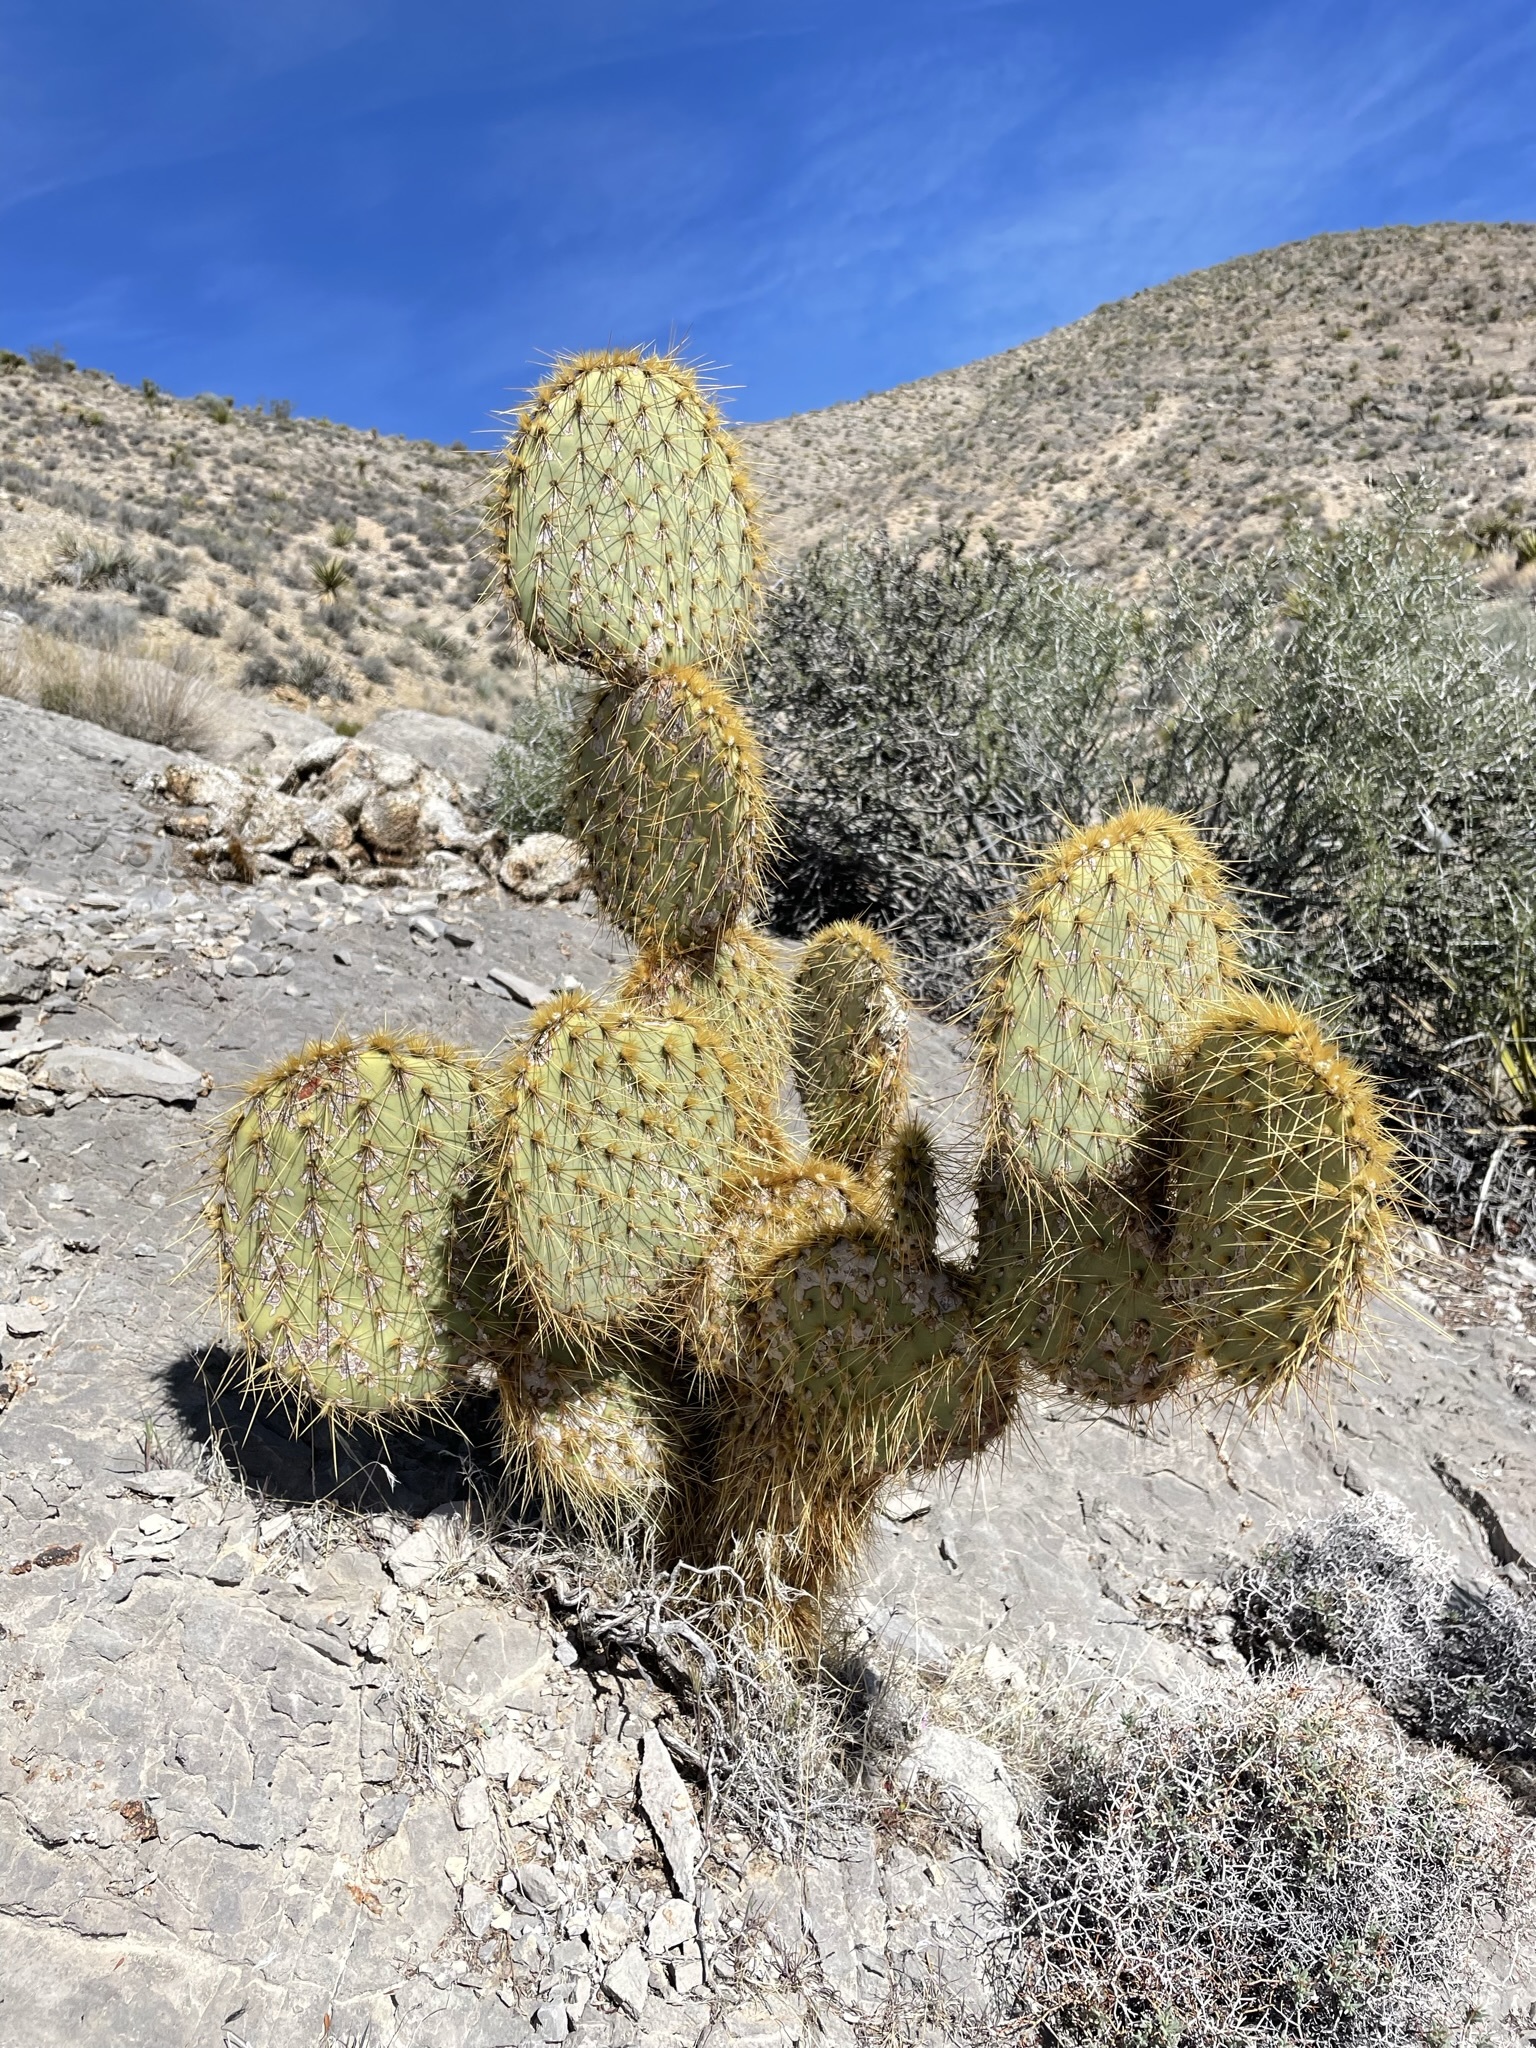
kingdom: Plantae
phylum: Tracheophyta
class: Magnoliopsida
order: Caryophyllales
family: Cactaceae
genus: Opuntia
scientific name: Opuntia chlorotica
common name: Dollar-joint prickly-pear
